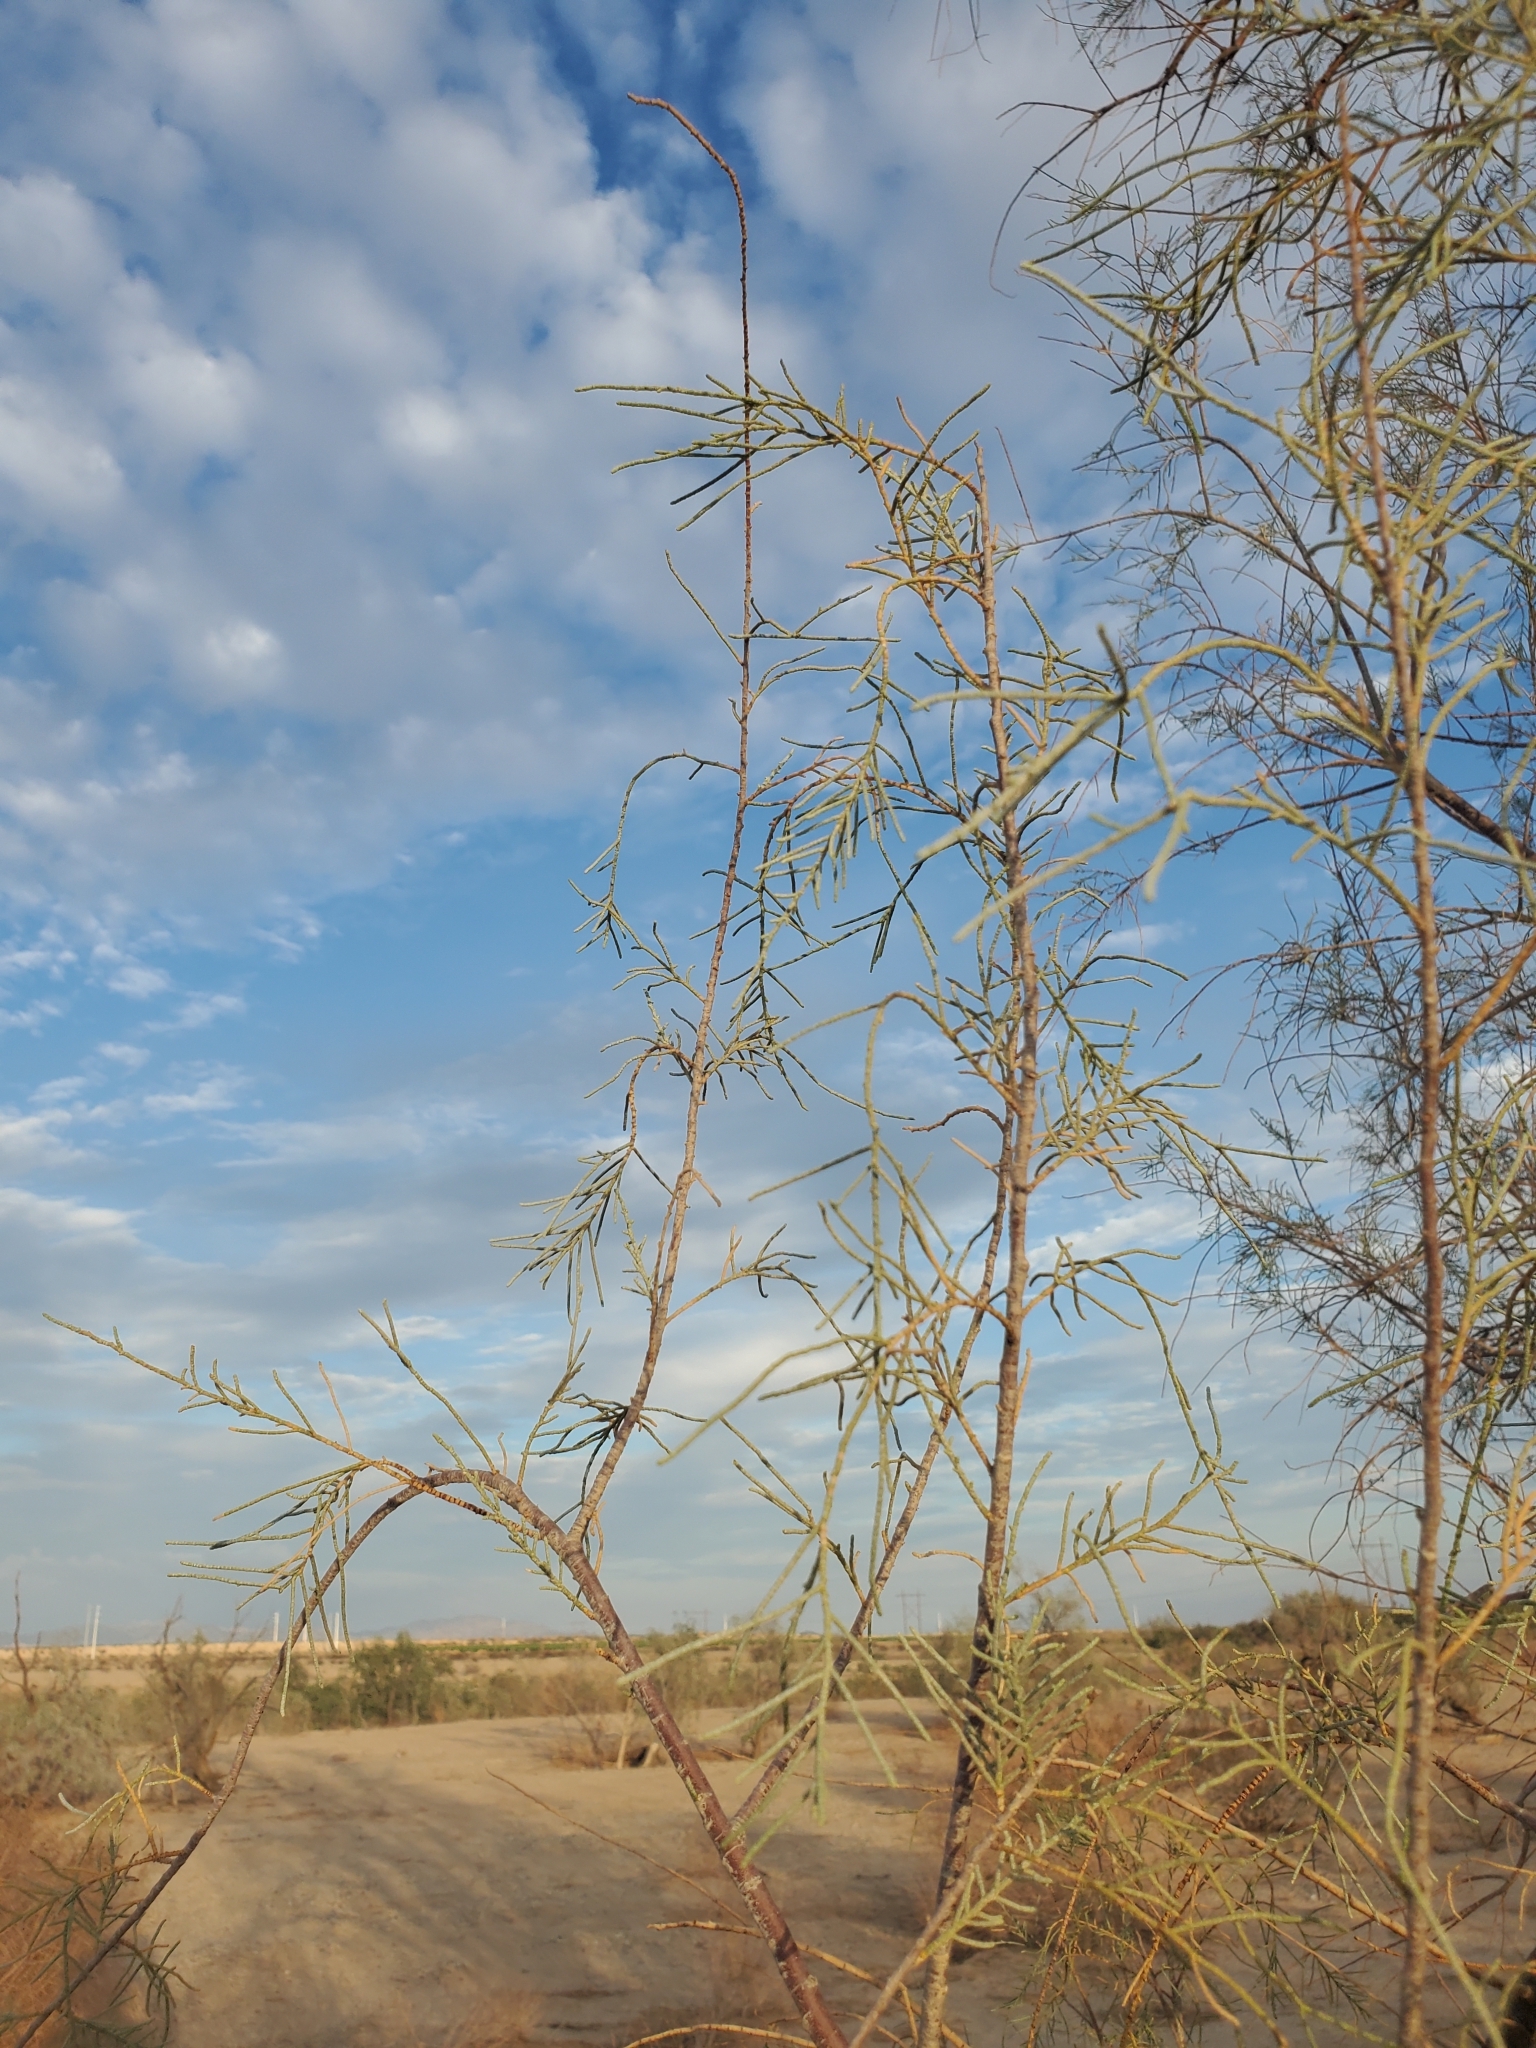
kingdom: Plantae
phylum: Tracheophyta
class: Magnoliopsida
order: Caryophyllales
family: Tamaricaceae
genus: Tamarix
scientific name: Tamarix aphylla
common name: Athel tamarisk
